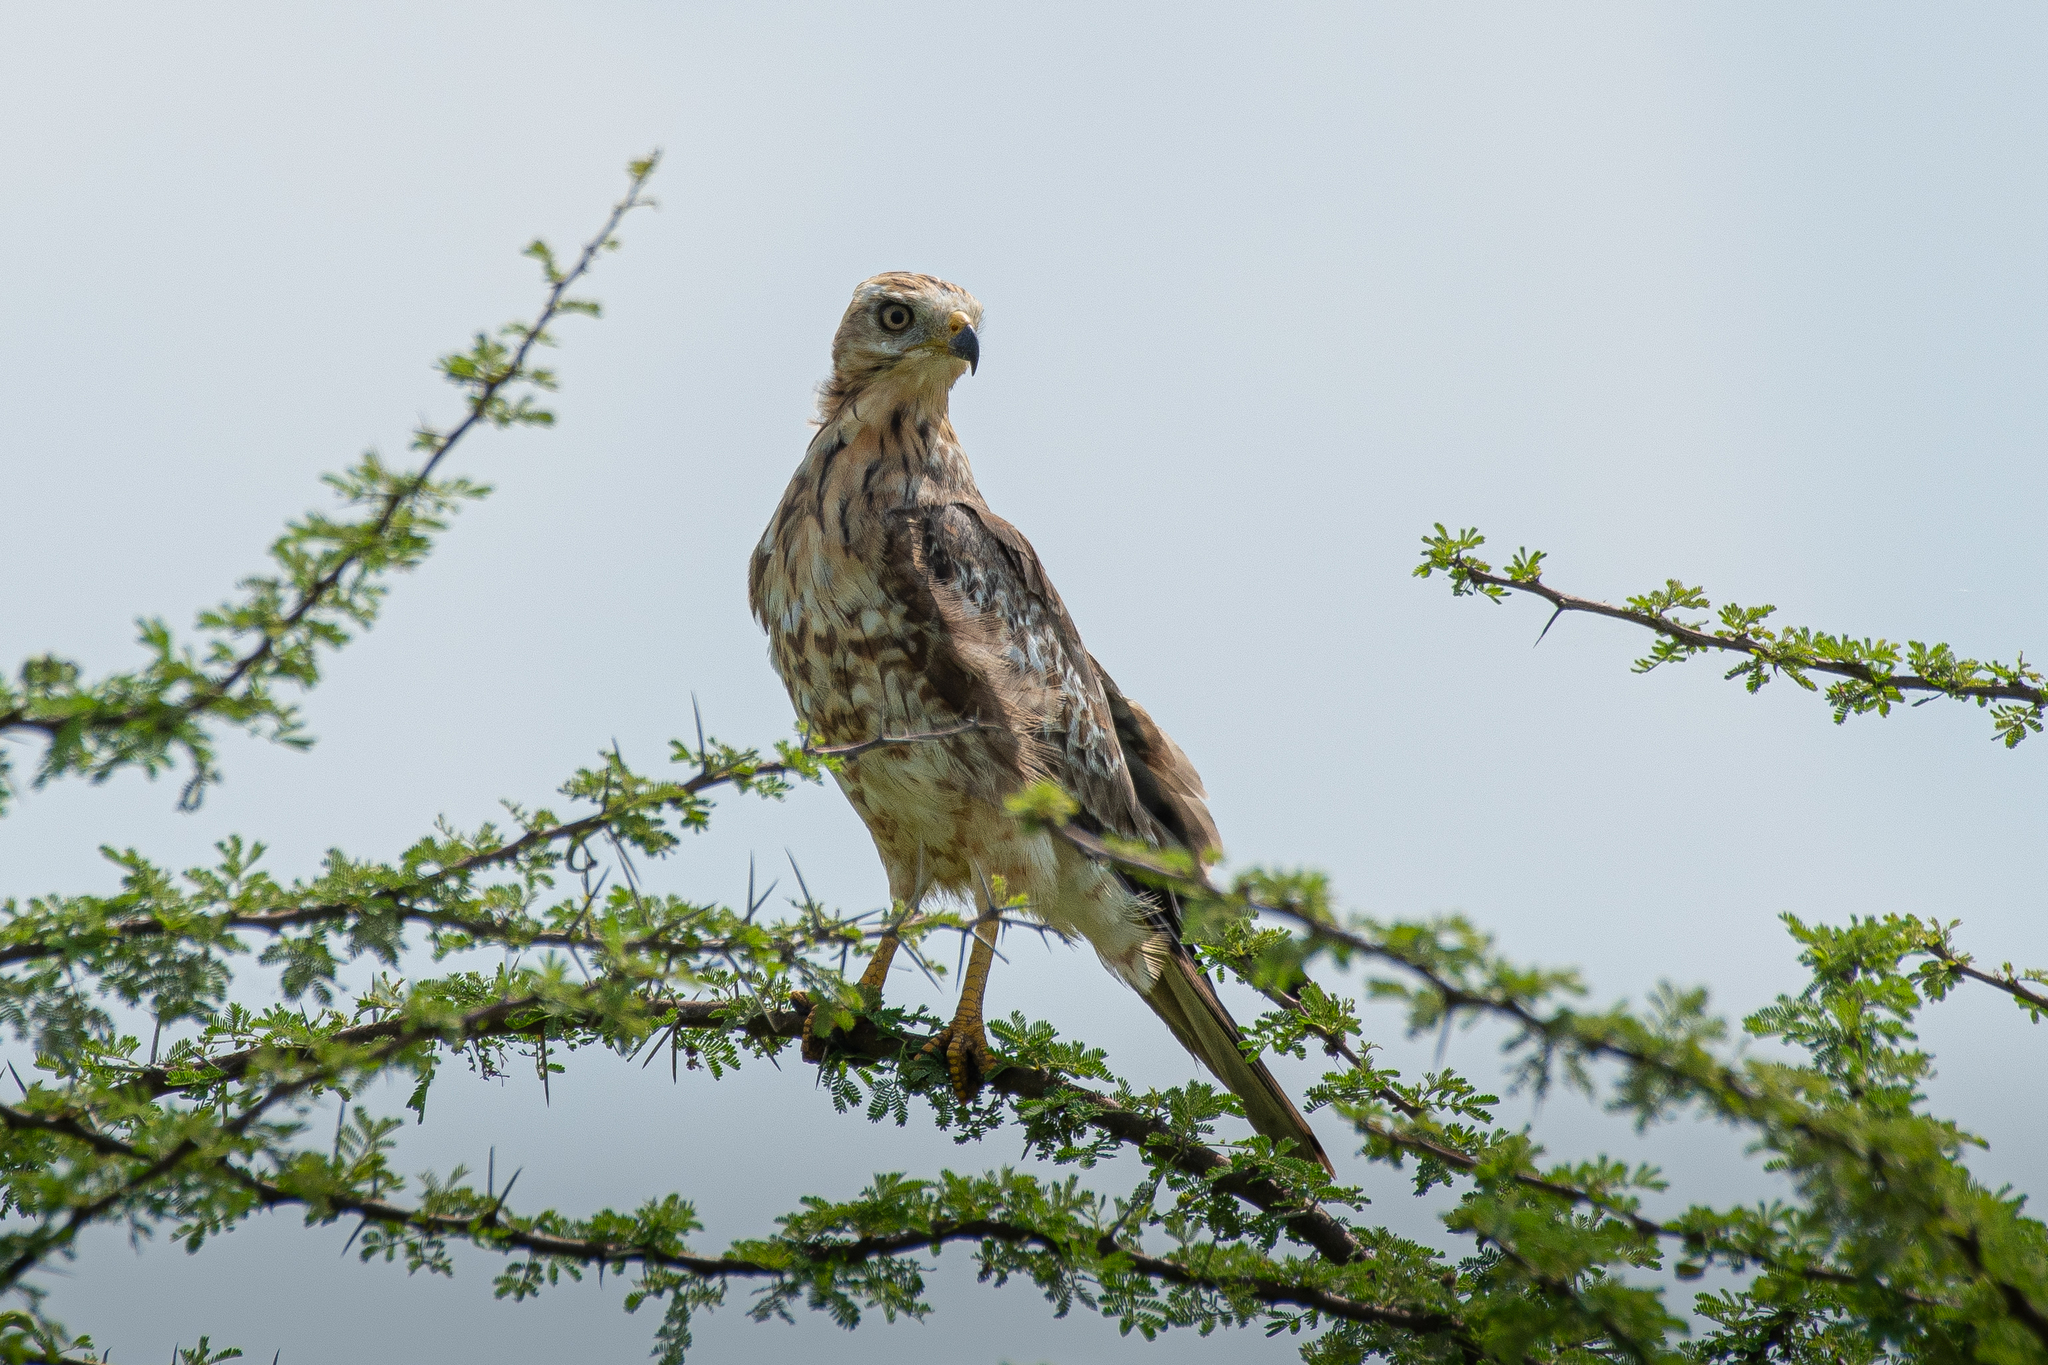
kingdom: Animalia
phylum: Chordata
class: Aves
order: Accipitriformes
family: Accipitridae
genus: Butastur
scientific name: Butastur teesa
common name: White-eyed buzzard
